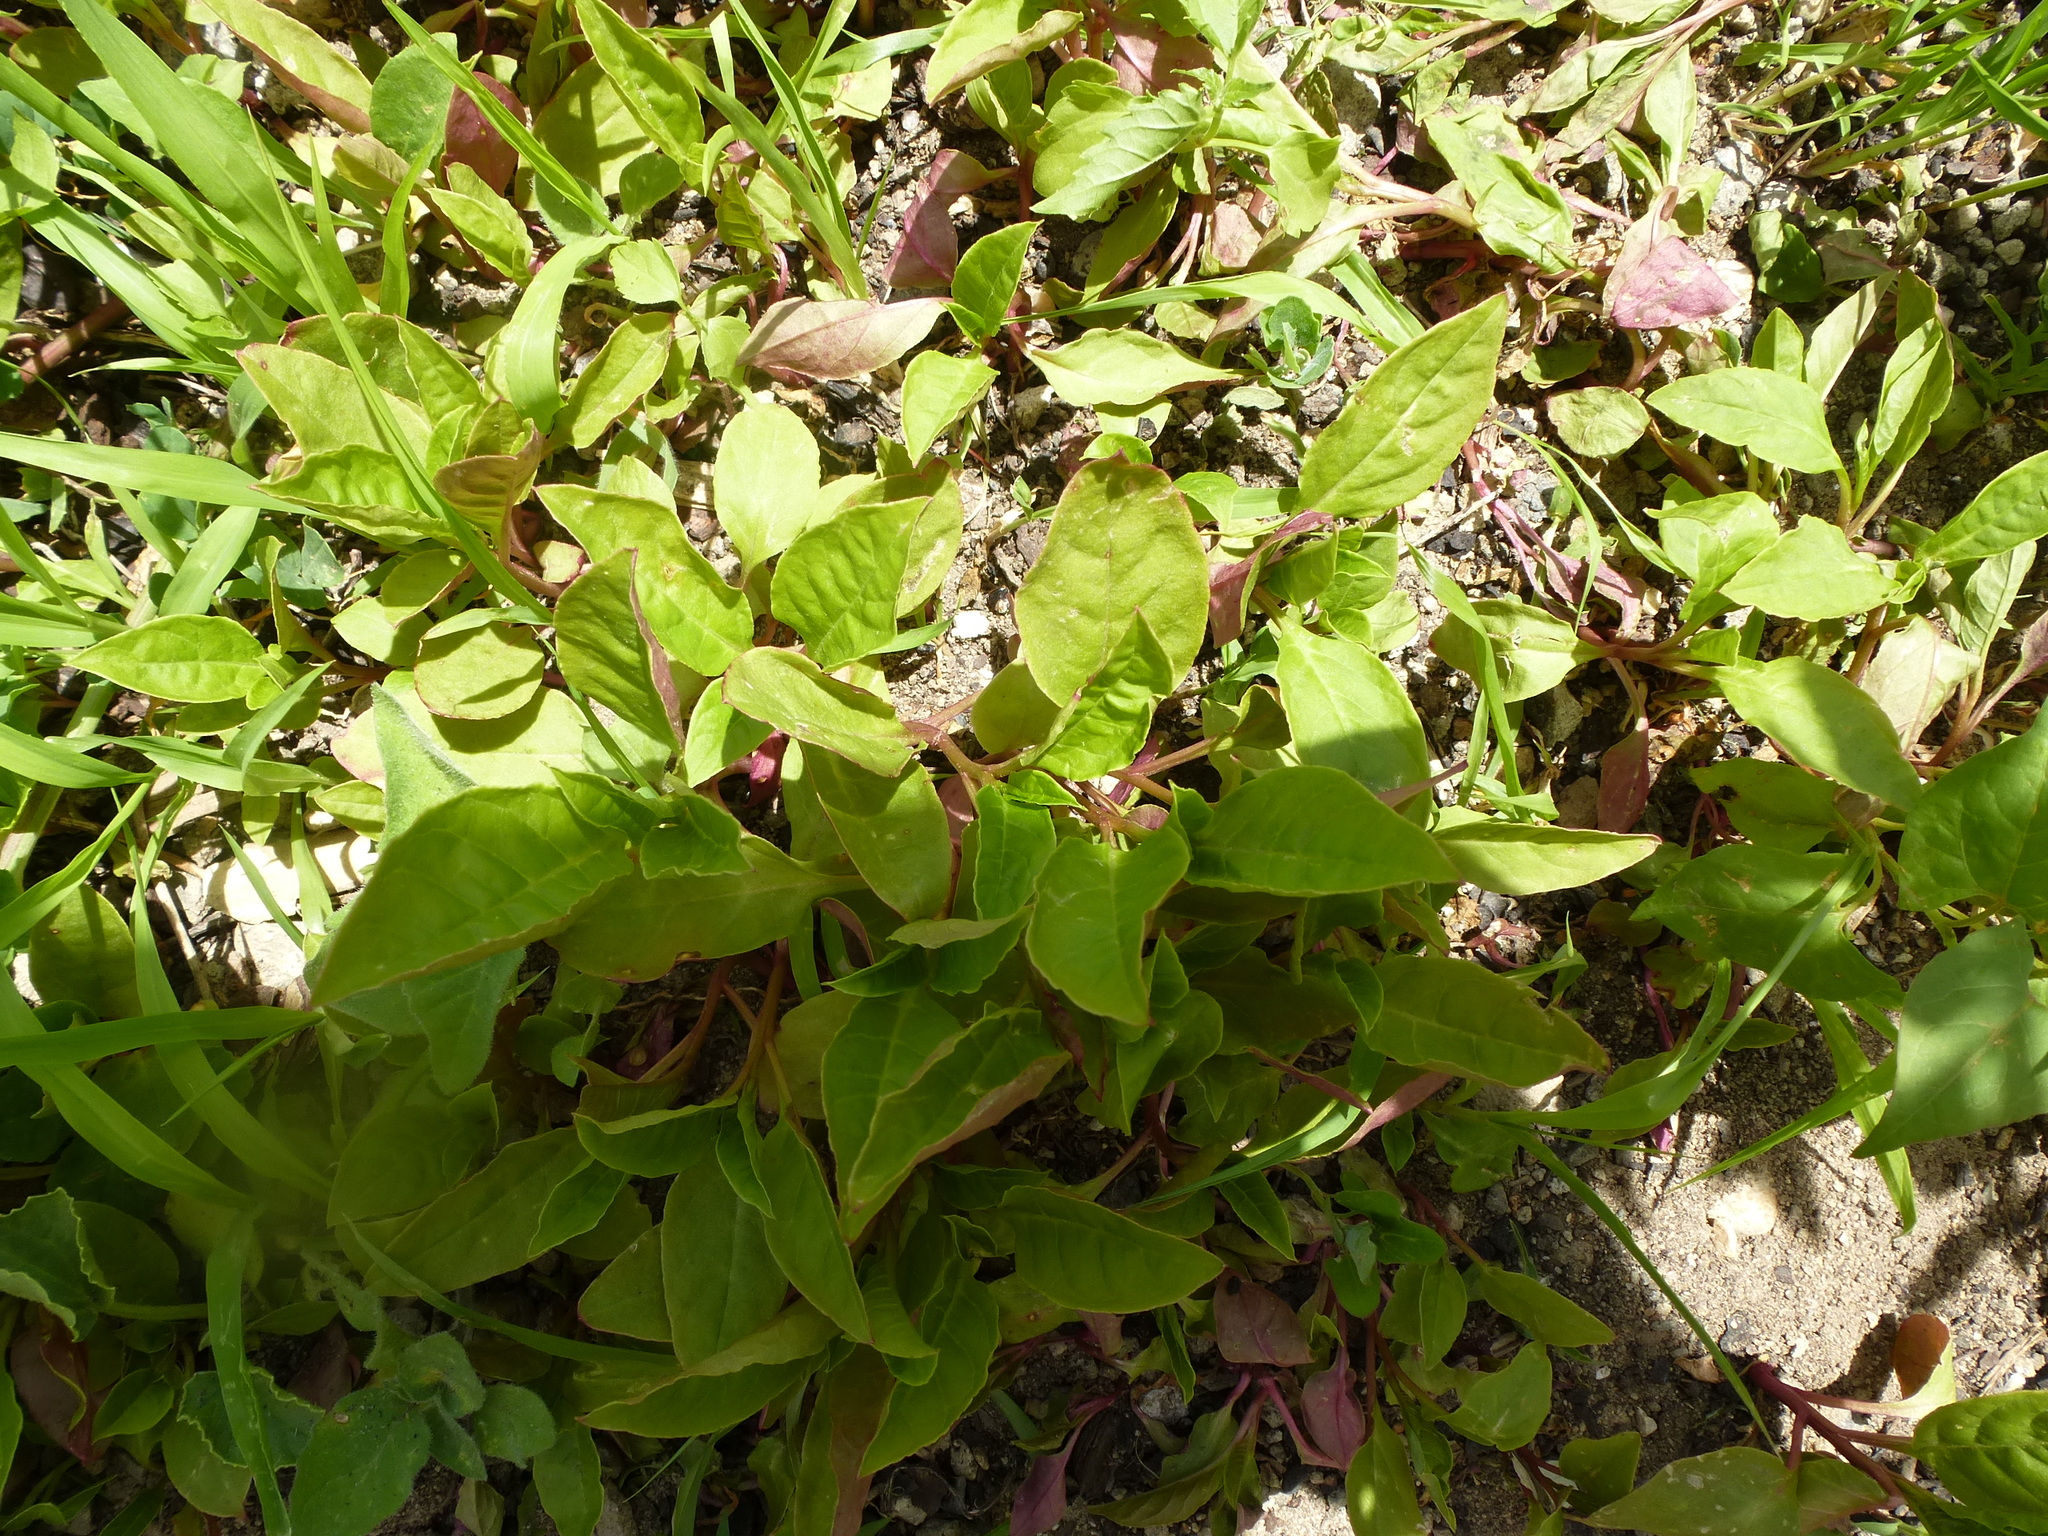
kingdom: Plantae
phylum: Tracheophyta
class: Magnoliopsida
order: Caryophyllales
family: Phytolaccaceae
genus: Phytolacca
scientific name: Phytolacca americana
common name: American pokeweed
